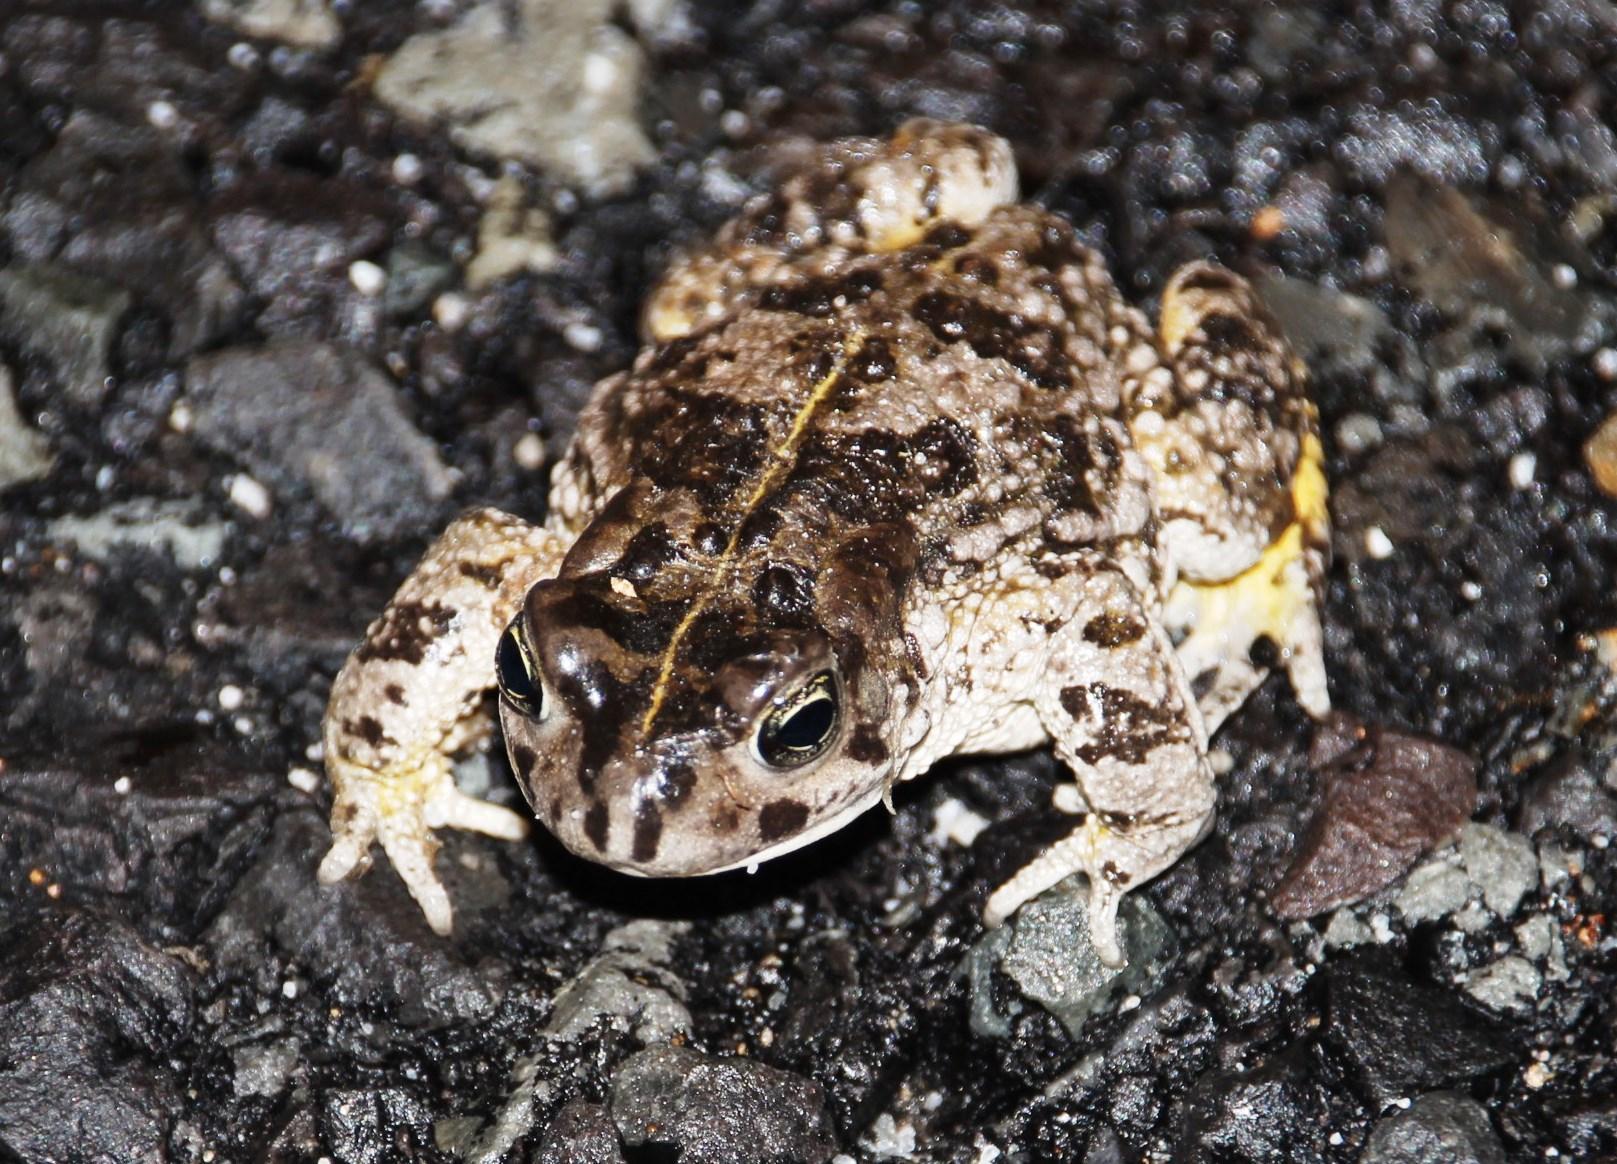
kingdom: Animalia
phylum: Chordata
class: Amphibia
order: Anura
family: Bufonidae
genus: Vandijkophrynus
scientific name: Vandijkophrynus angusticeps
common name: Sand toad
